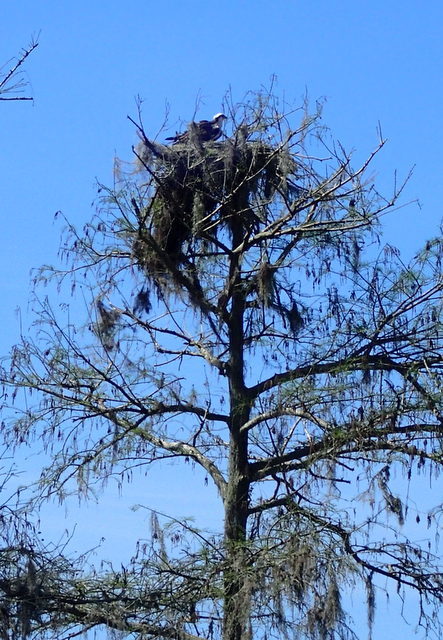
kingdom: Animalia
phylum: Chordata
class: Aves
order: Accipitriformes
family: Pandionidae
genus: Pandion
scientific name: Pandion haliaetus
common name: Osprey
